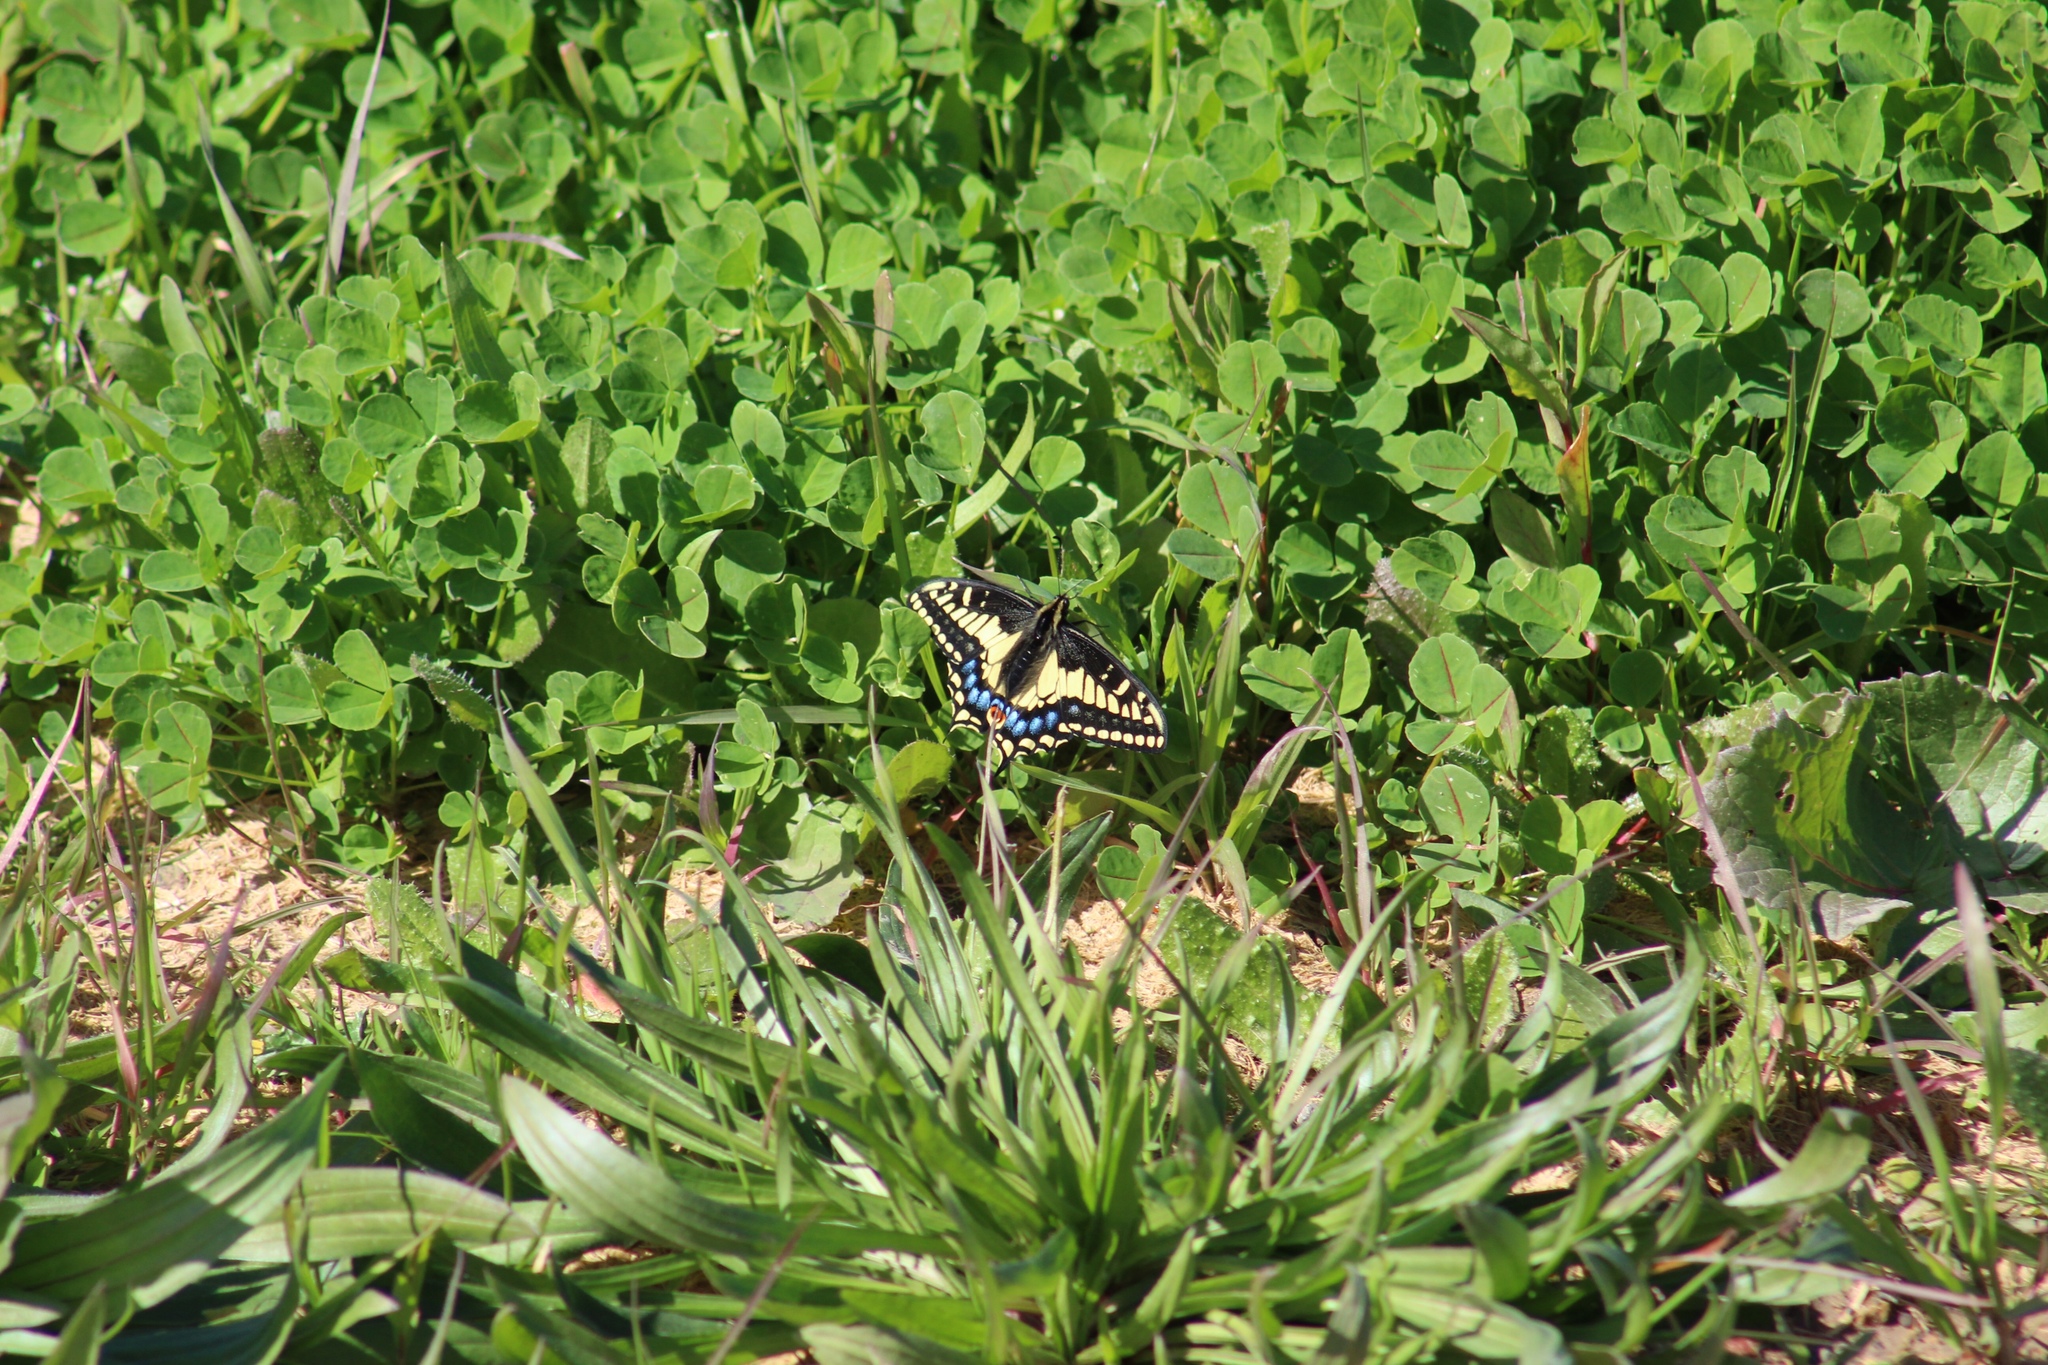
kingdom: Animalia
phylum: Arthropoda
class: Insecta
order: Lepidoptera
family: Papilionidae
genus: Papilio
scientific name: Papilio zelicaon
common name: Anise swallowtail
